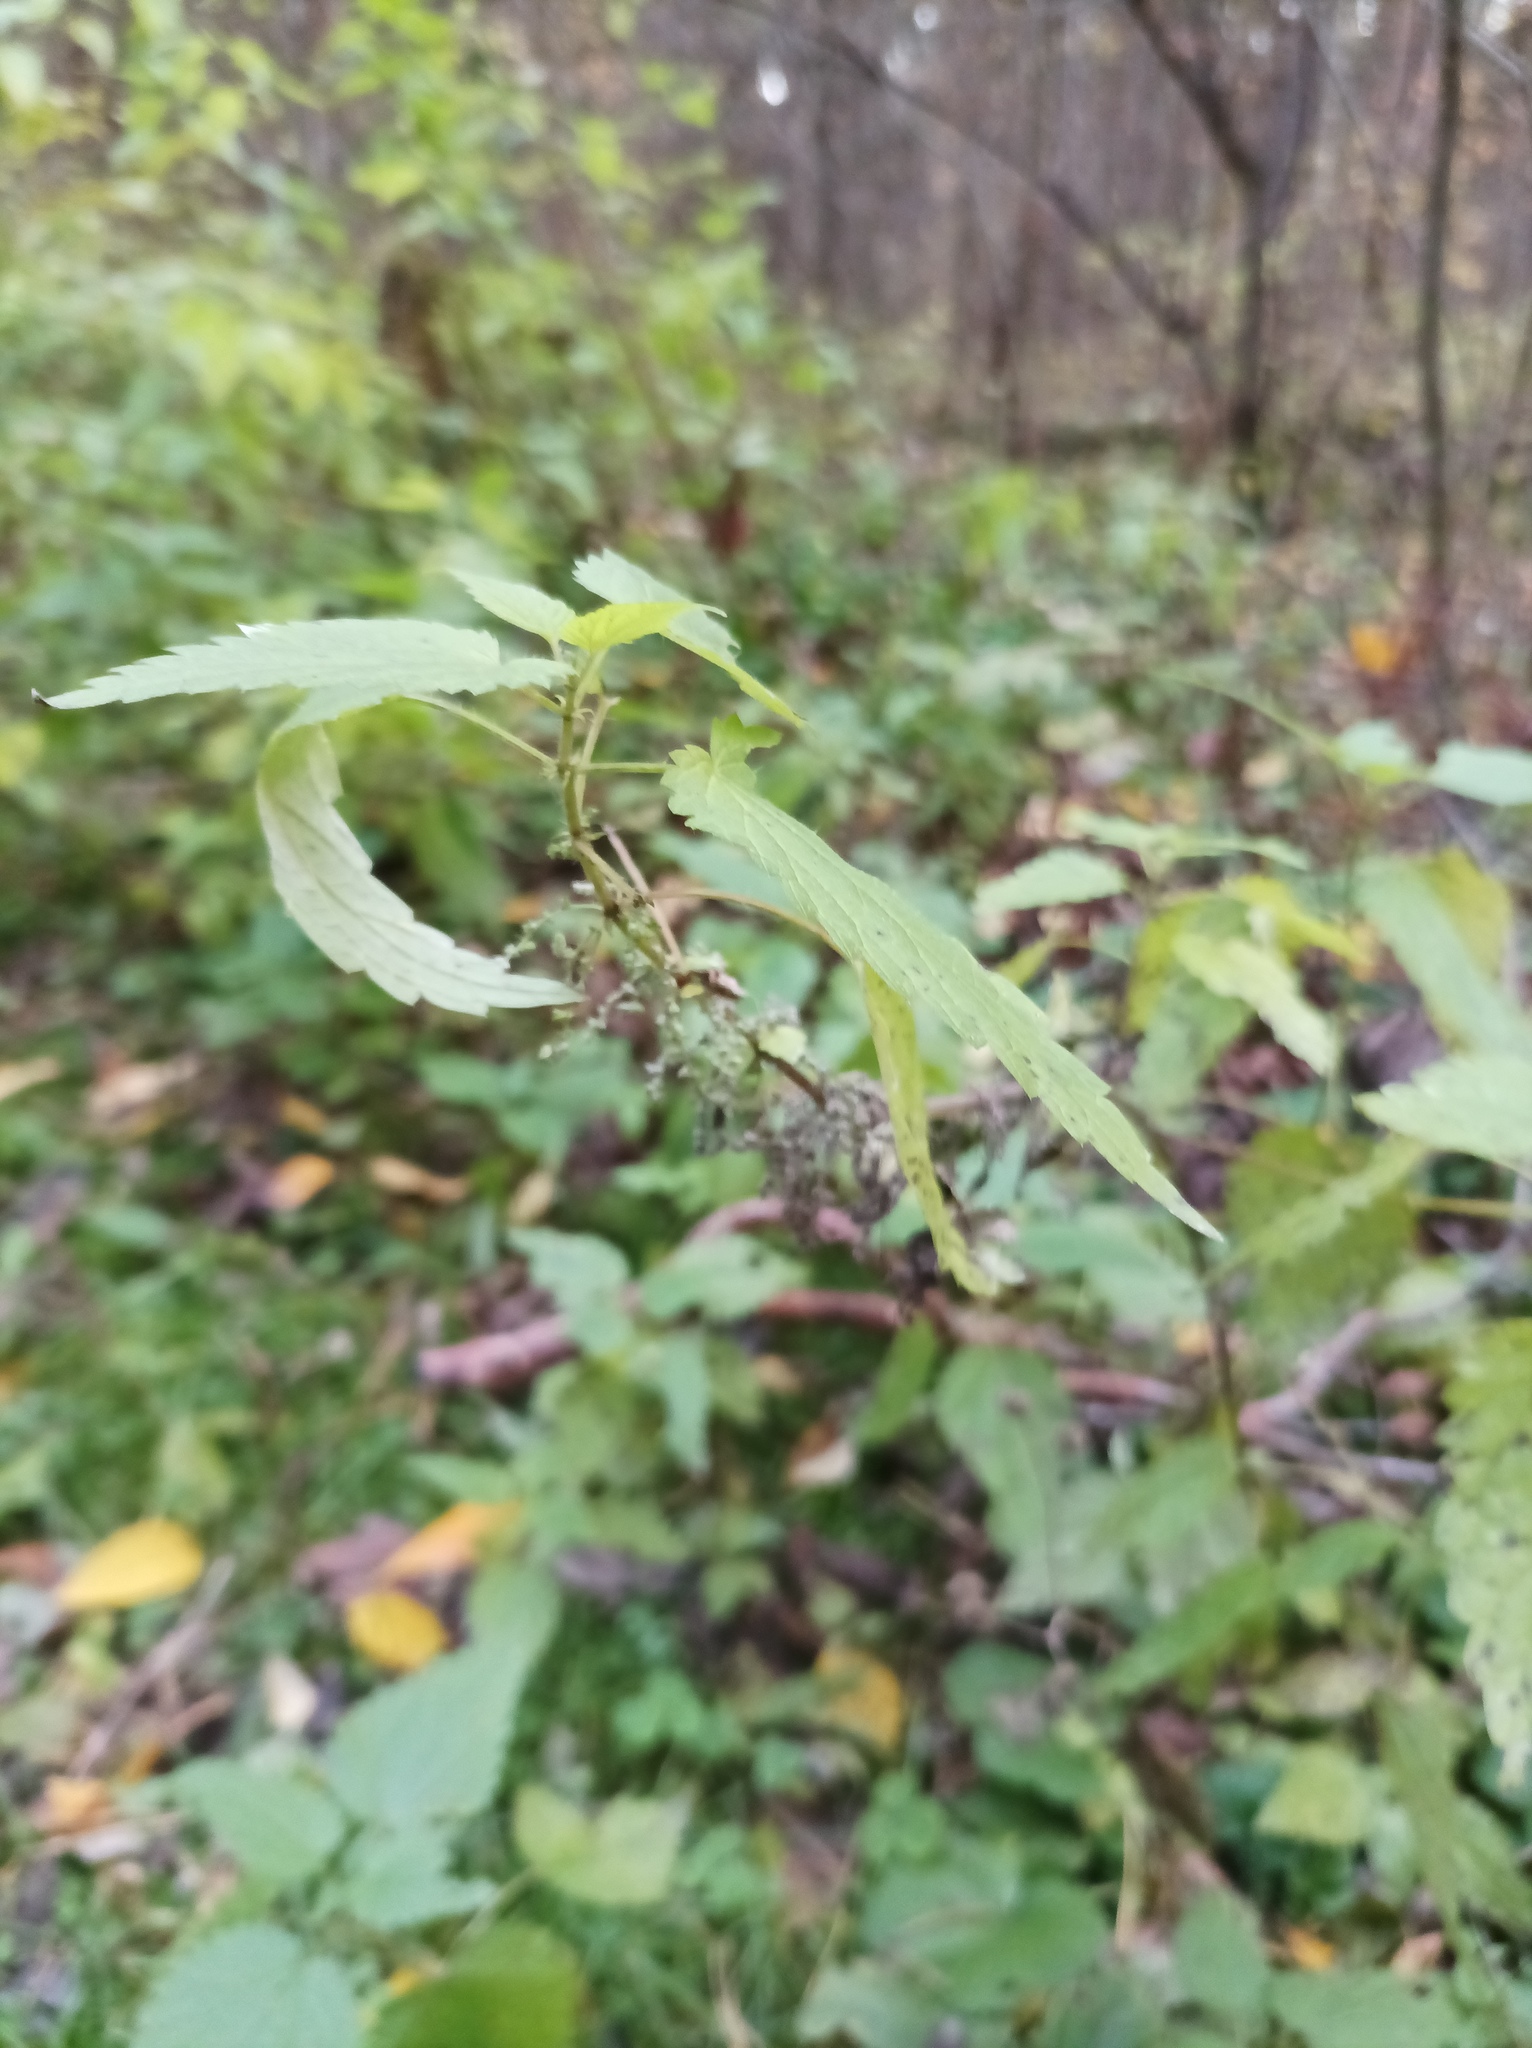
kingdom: Plantae
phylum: Tracheophyta
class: Magnoliopsida
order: Rosales
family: Urticaceae
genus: Urtica
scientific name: Urtica dioica
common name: Common nettle
